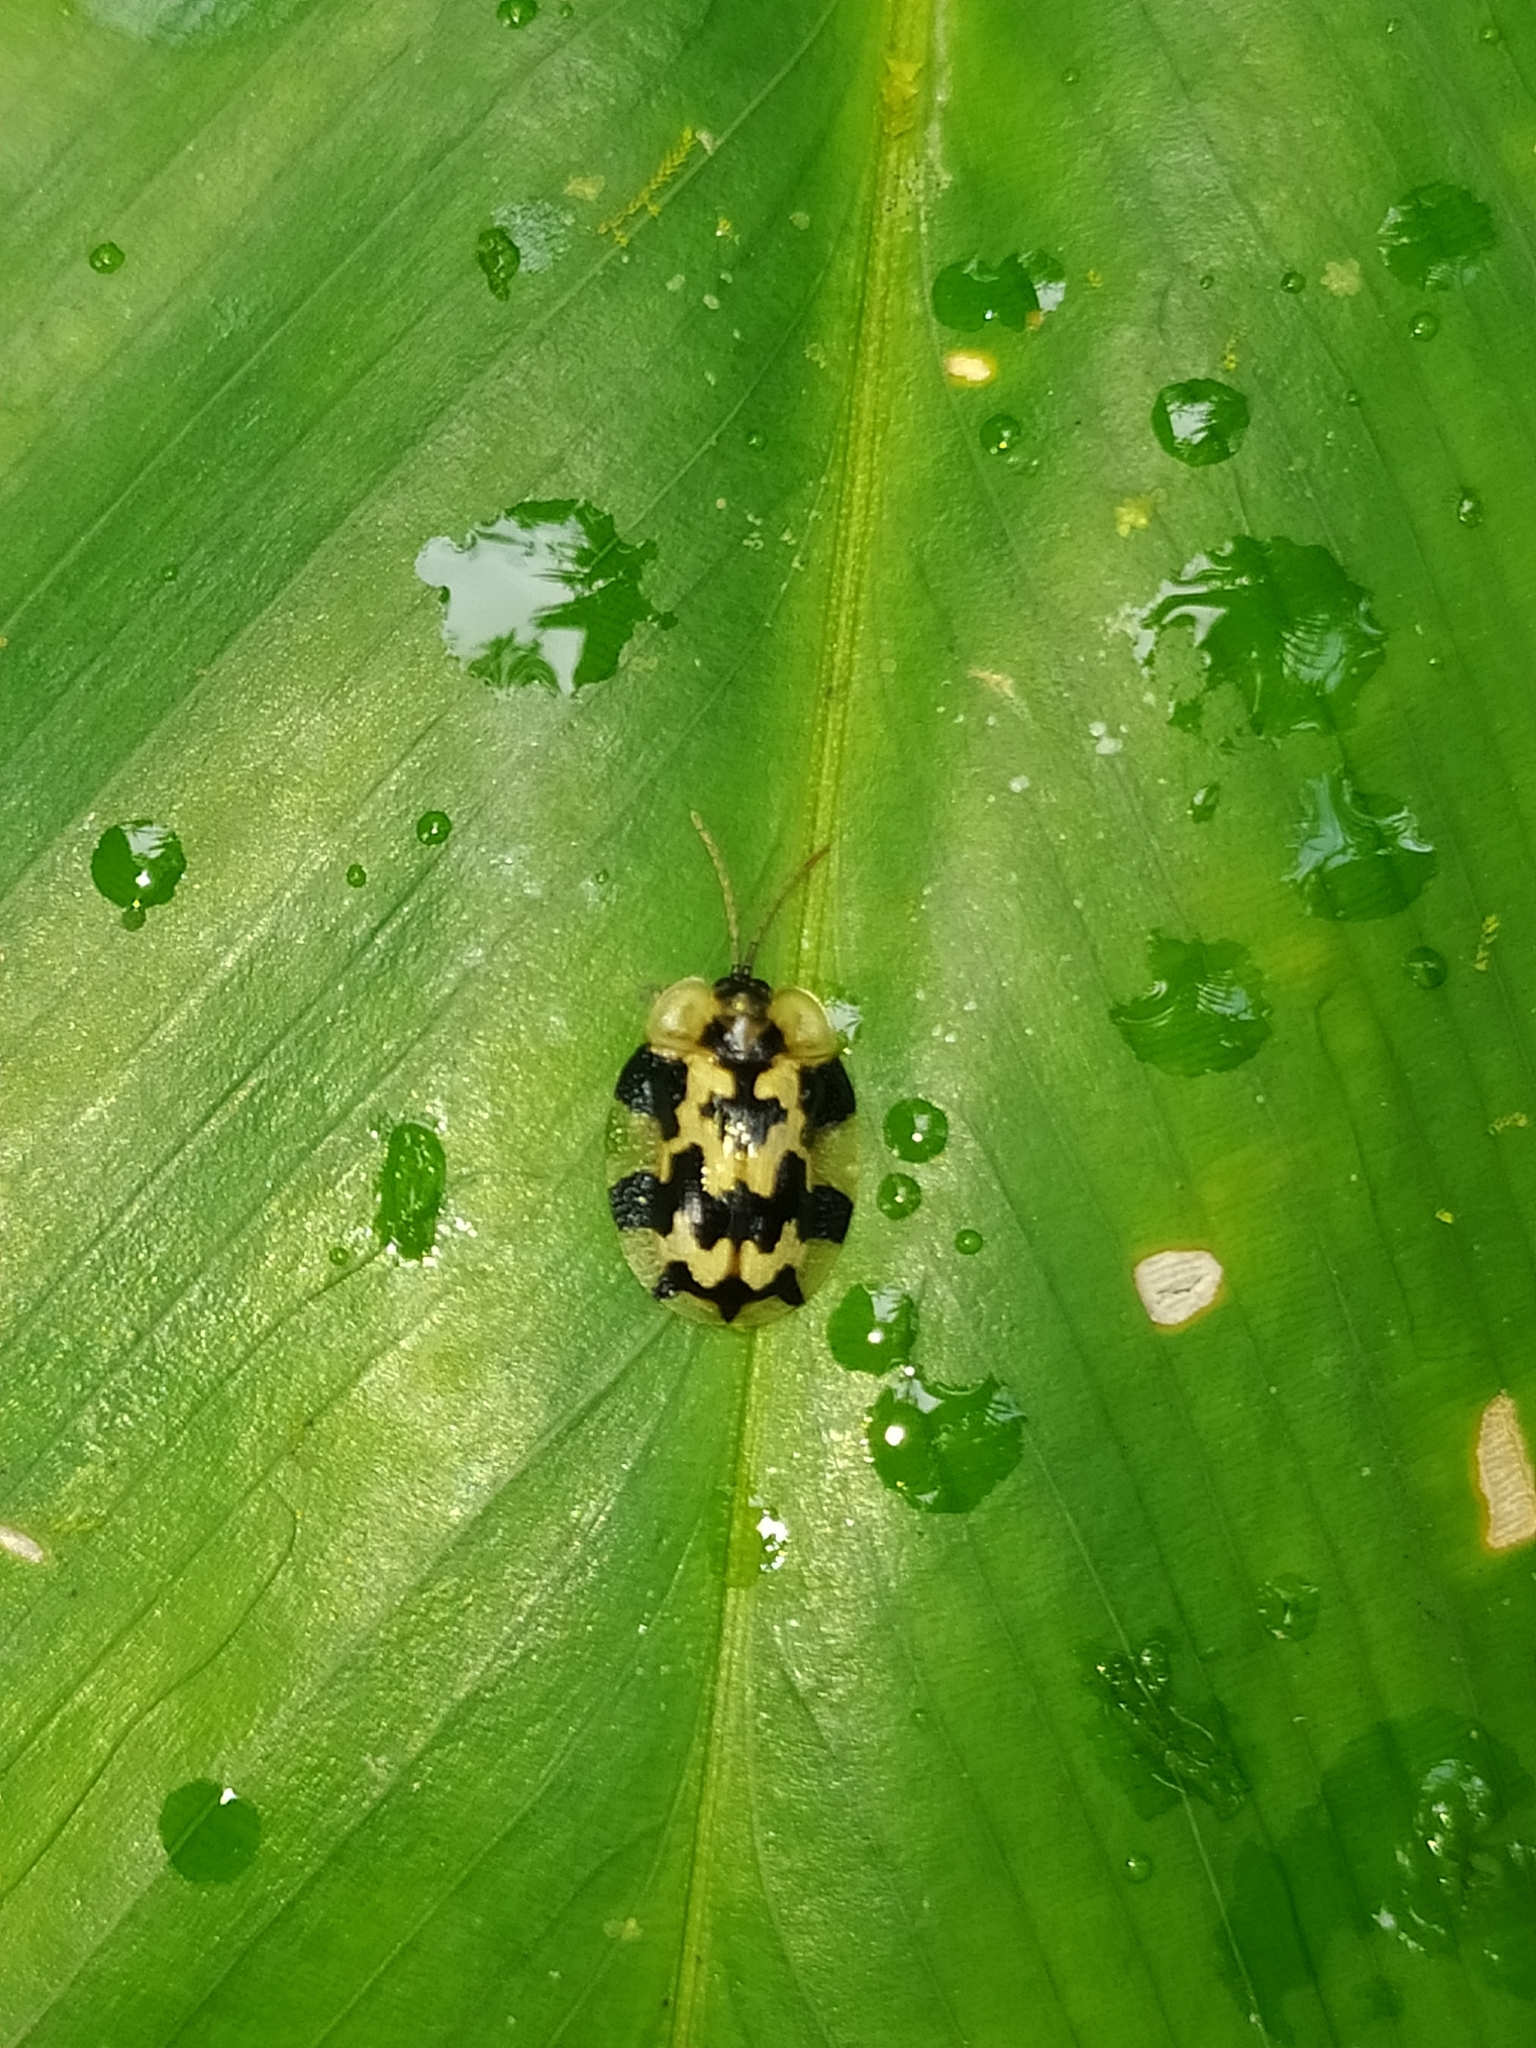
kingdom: Animalia
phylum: Arthropoda
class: Insecta
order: Coleoptera
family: Chrysomelidae
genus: Aslamidium
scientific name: Aslamidium capense
